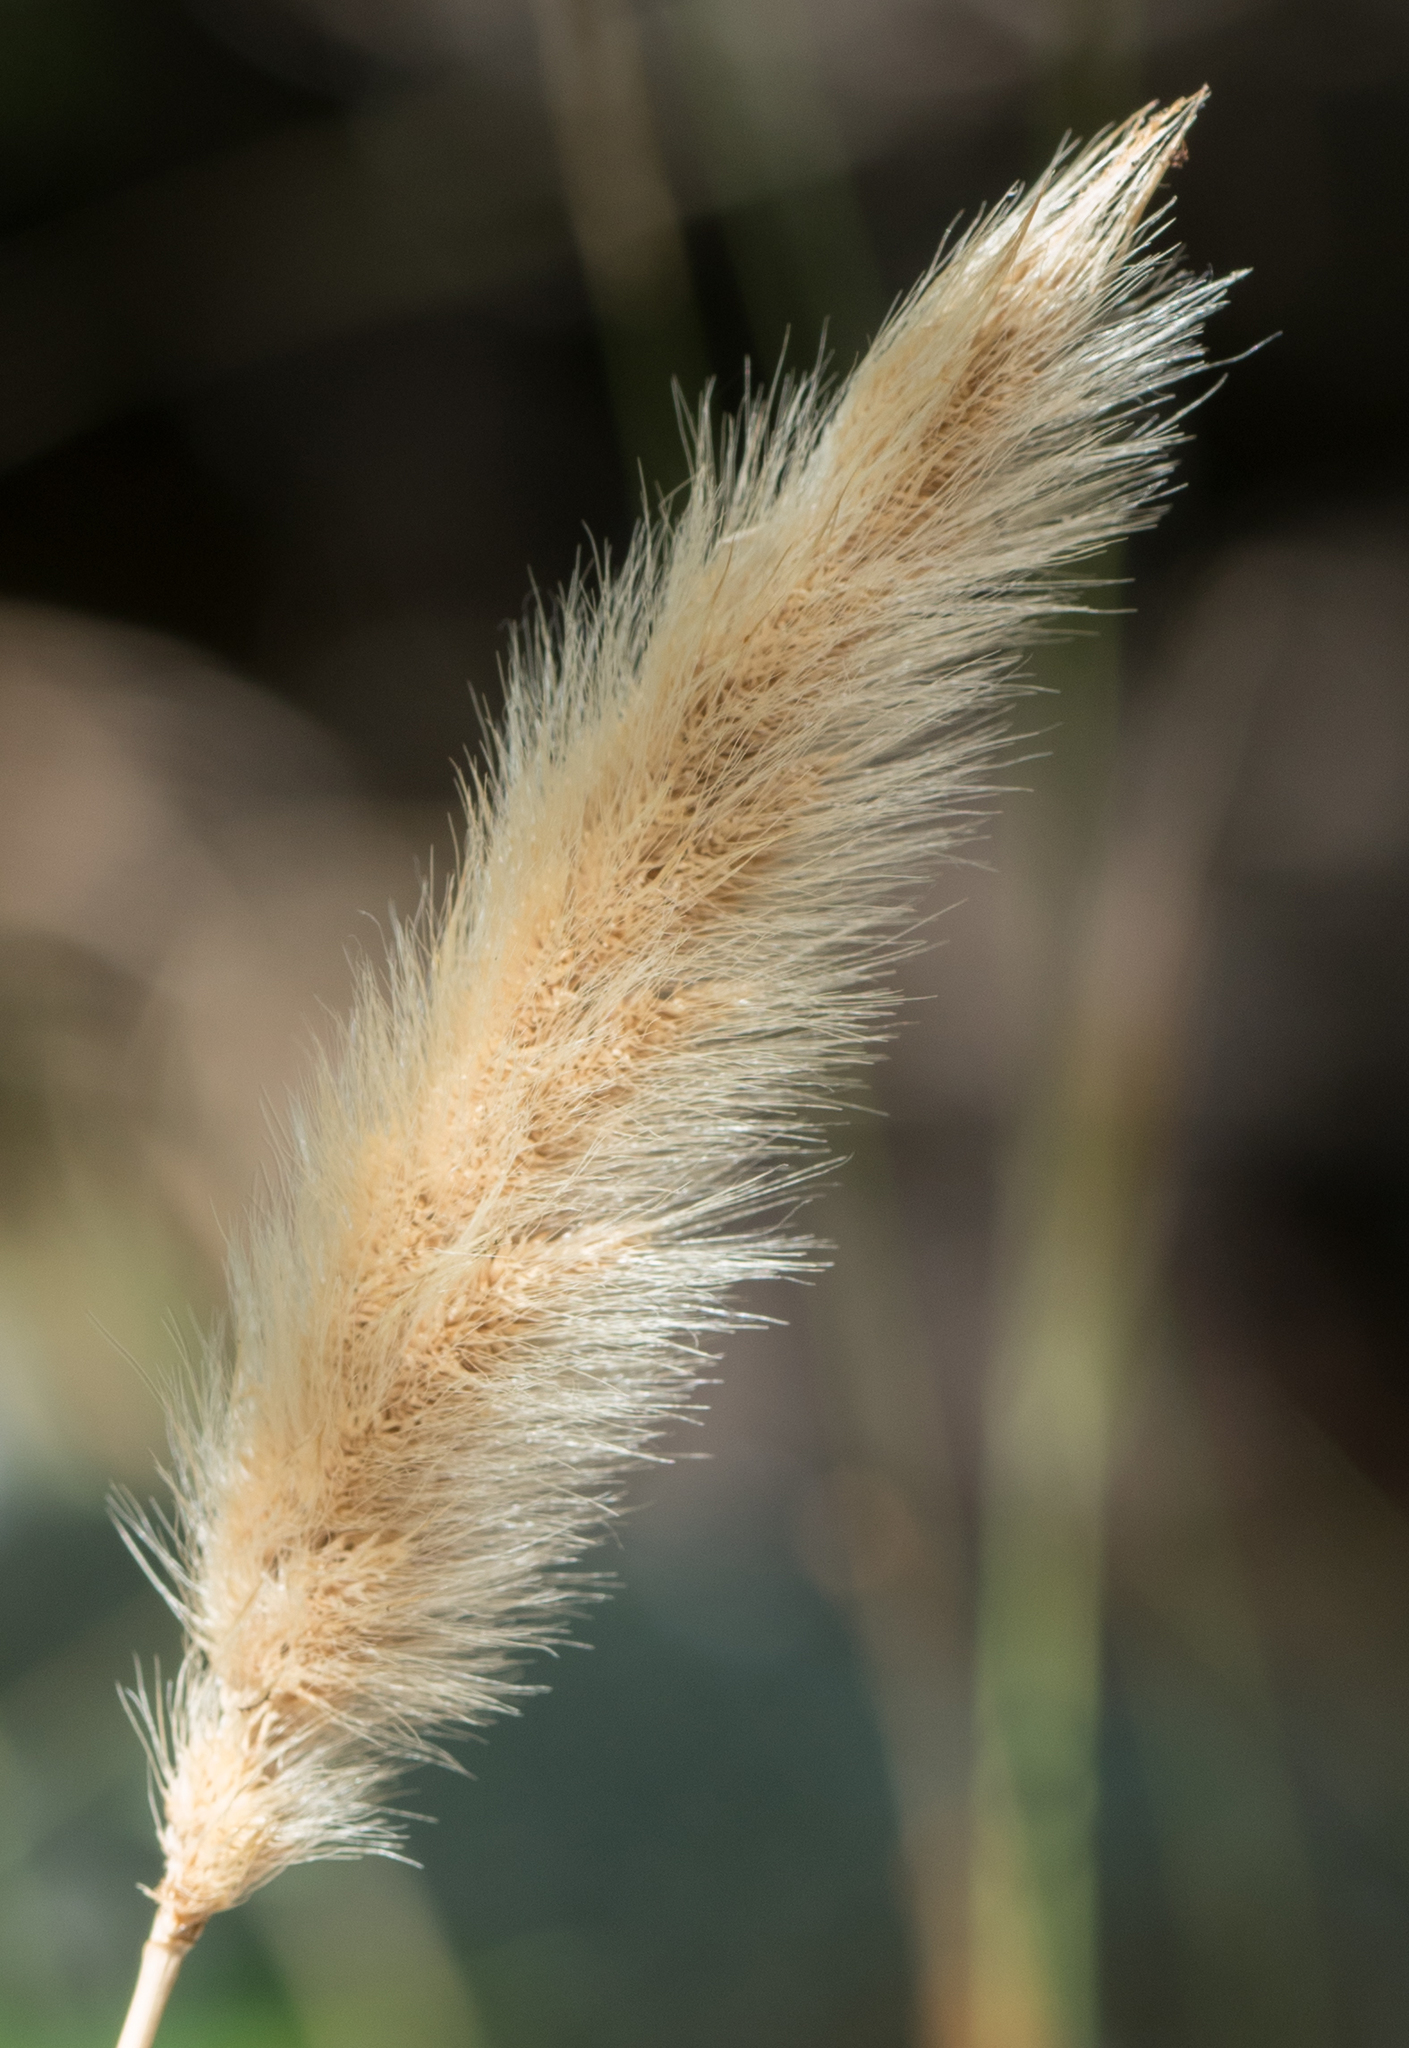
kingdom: Plantae
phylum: Tracheophyta
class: Liliopsida
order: Poales
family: Poaceae
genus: Polypogon
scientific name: Polypogon monspeliensis
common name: Annual rabbitsfoot grass
